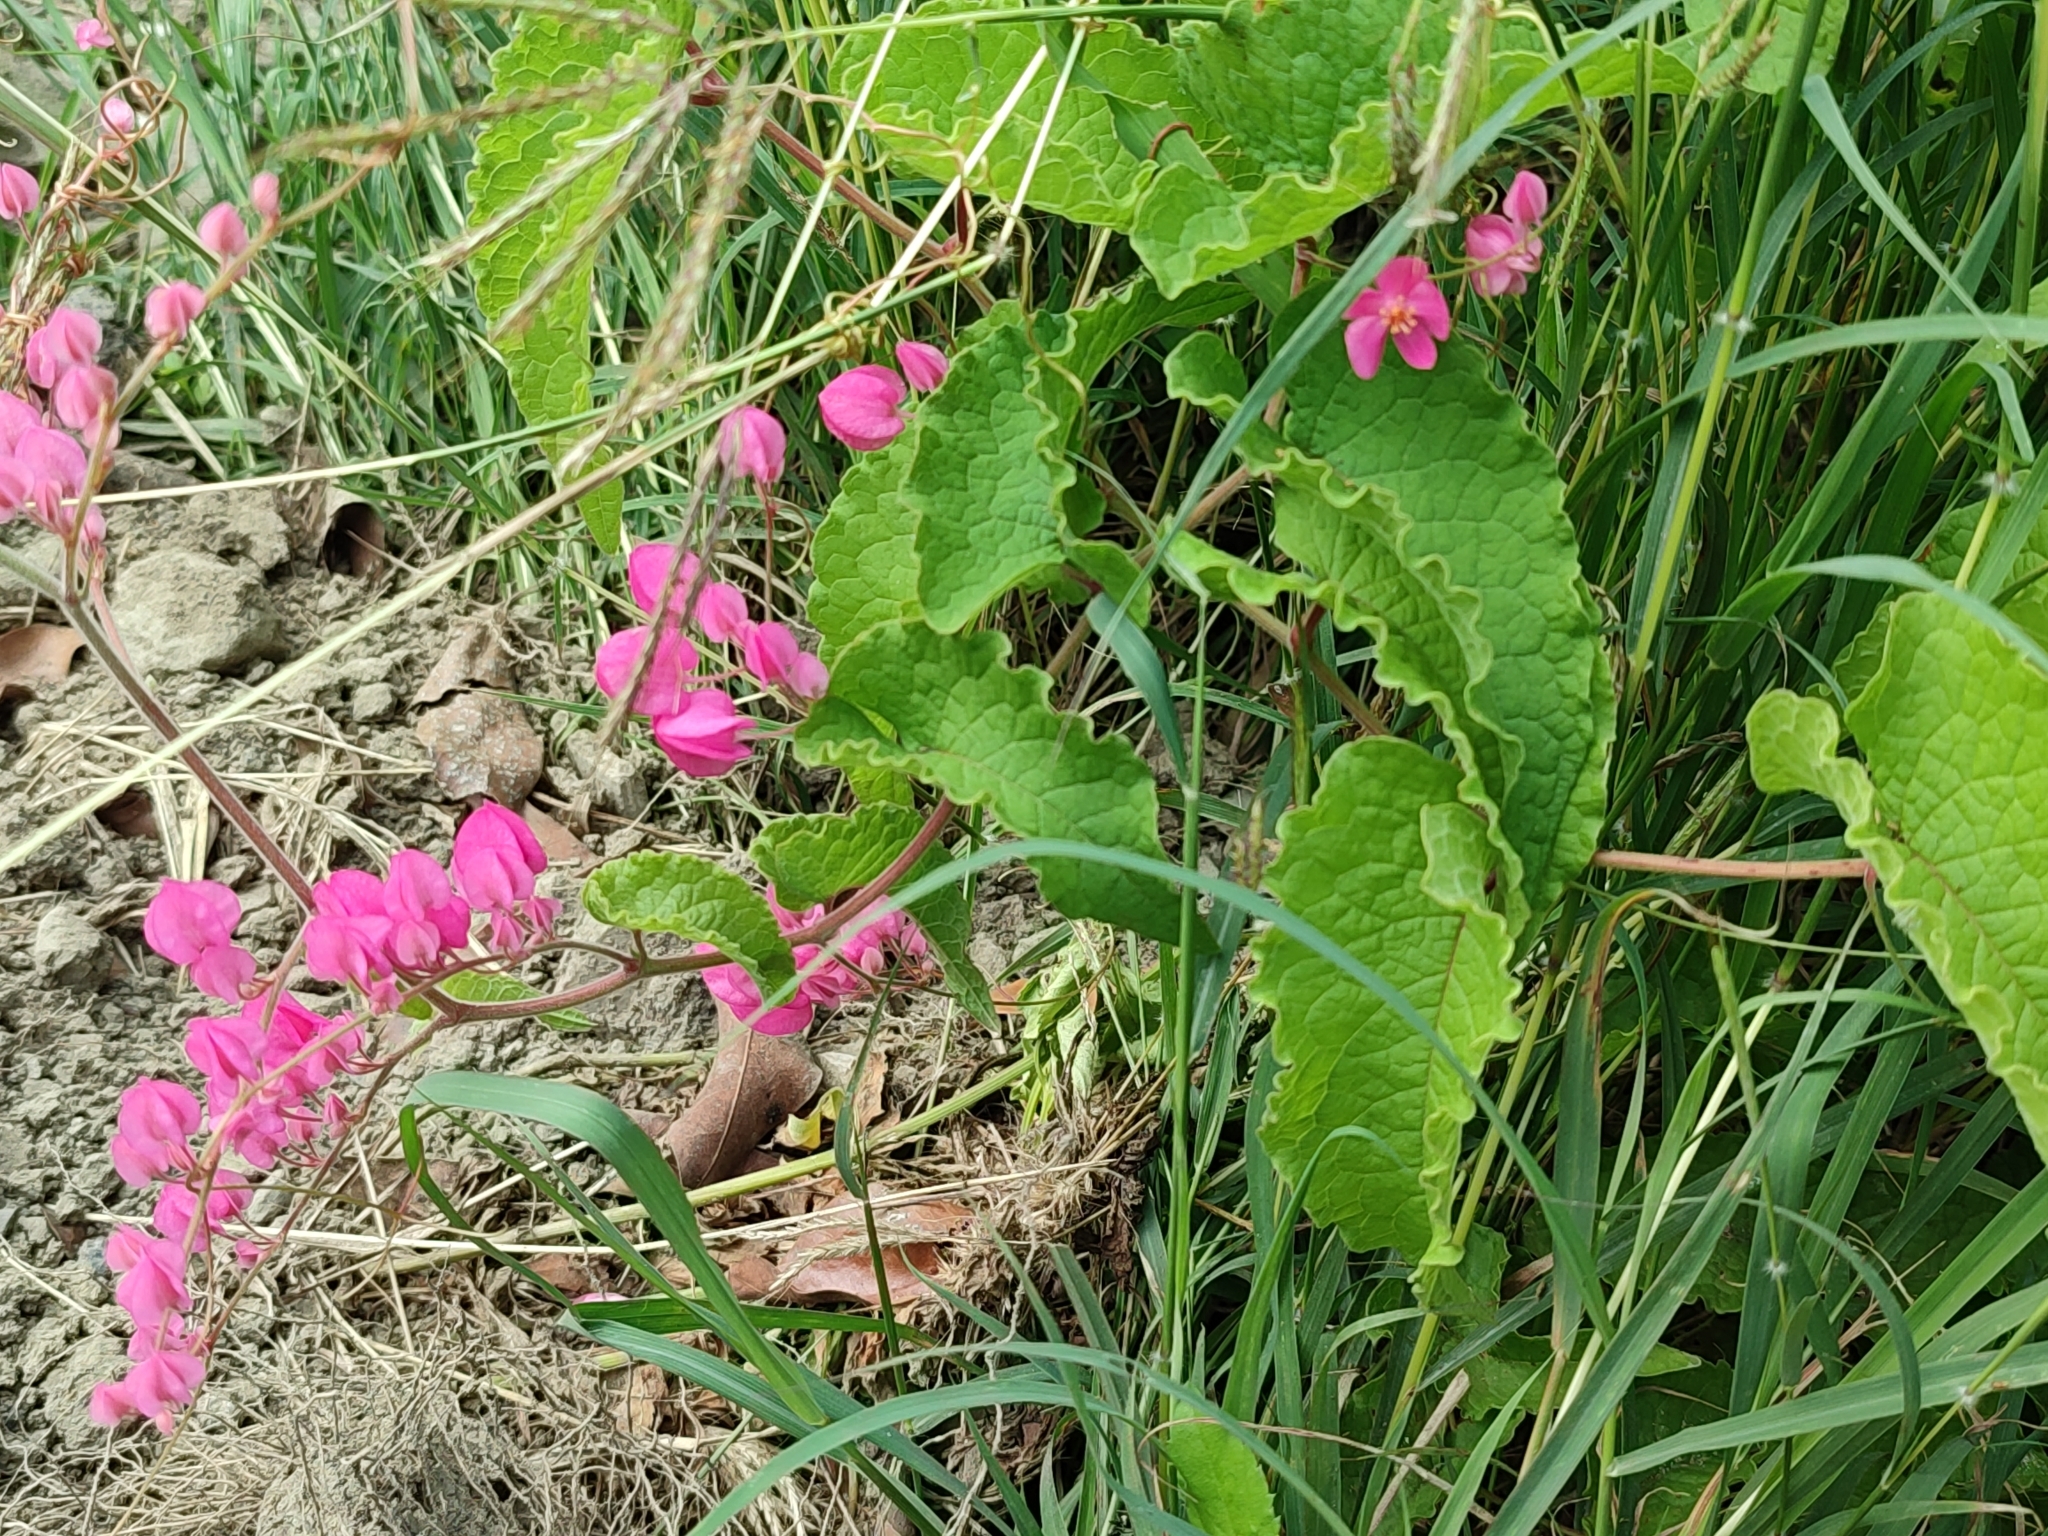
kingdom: Plantae
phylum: Tracheophyta
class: Magnoliopsida
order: Caryophyllales
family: Polygonaceae
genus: Antigonon
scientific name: Antigonon leptopus
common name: Coral vine
